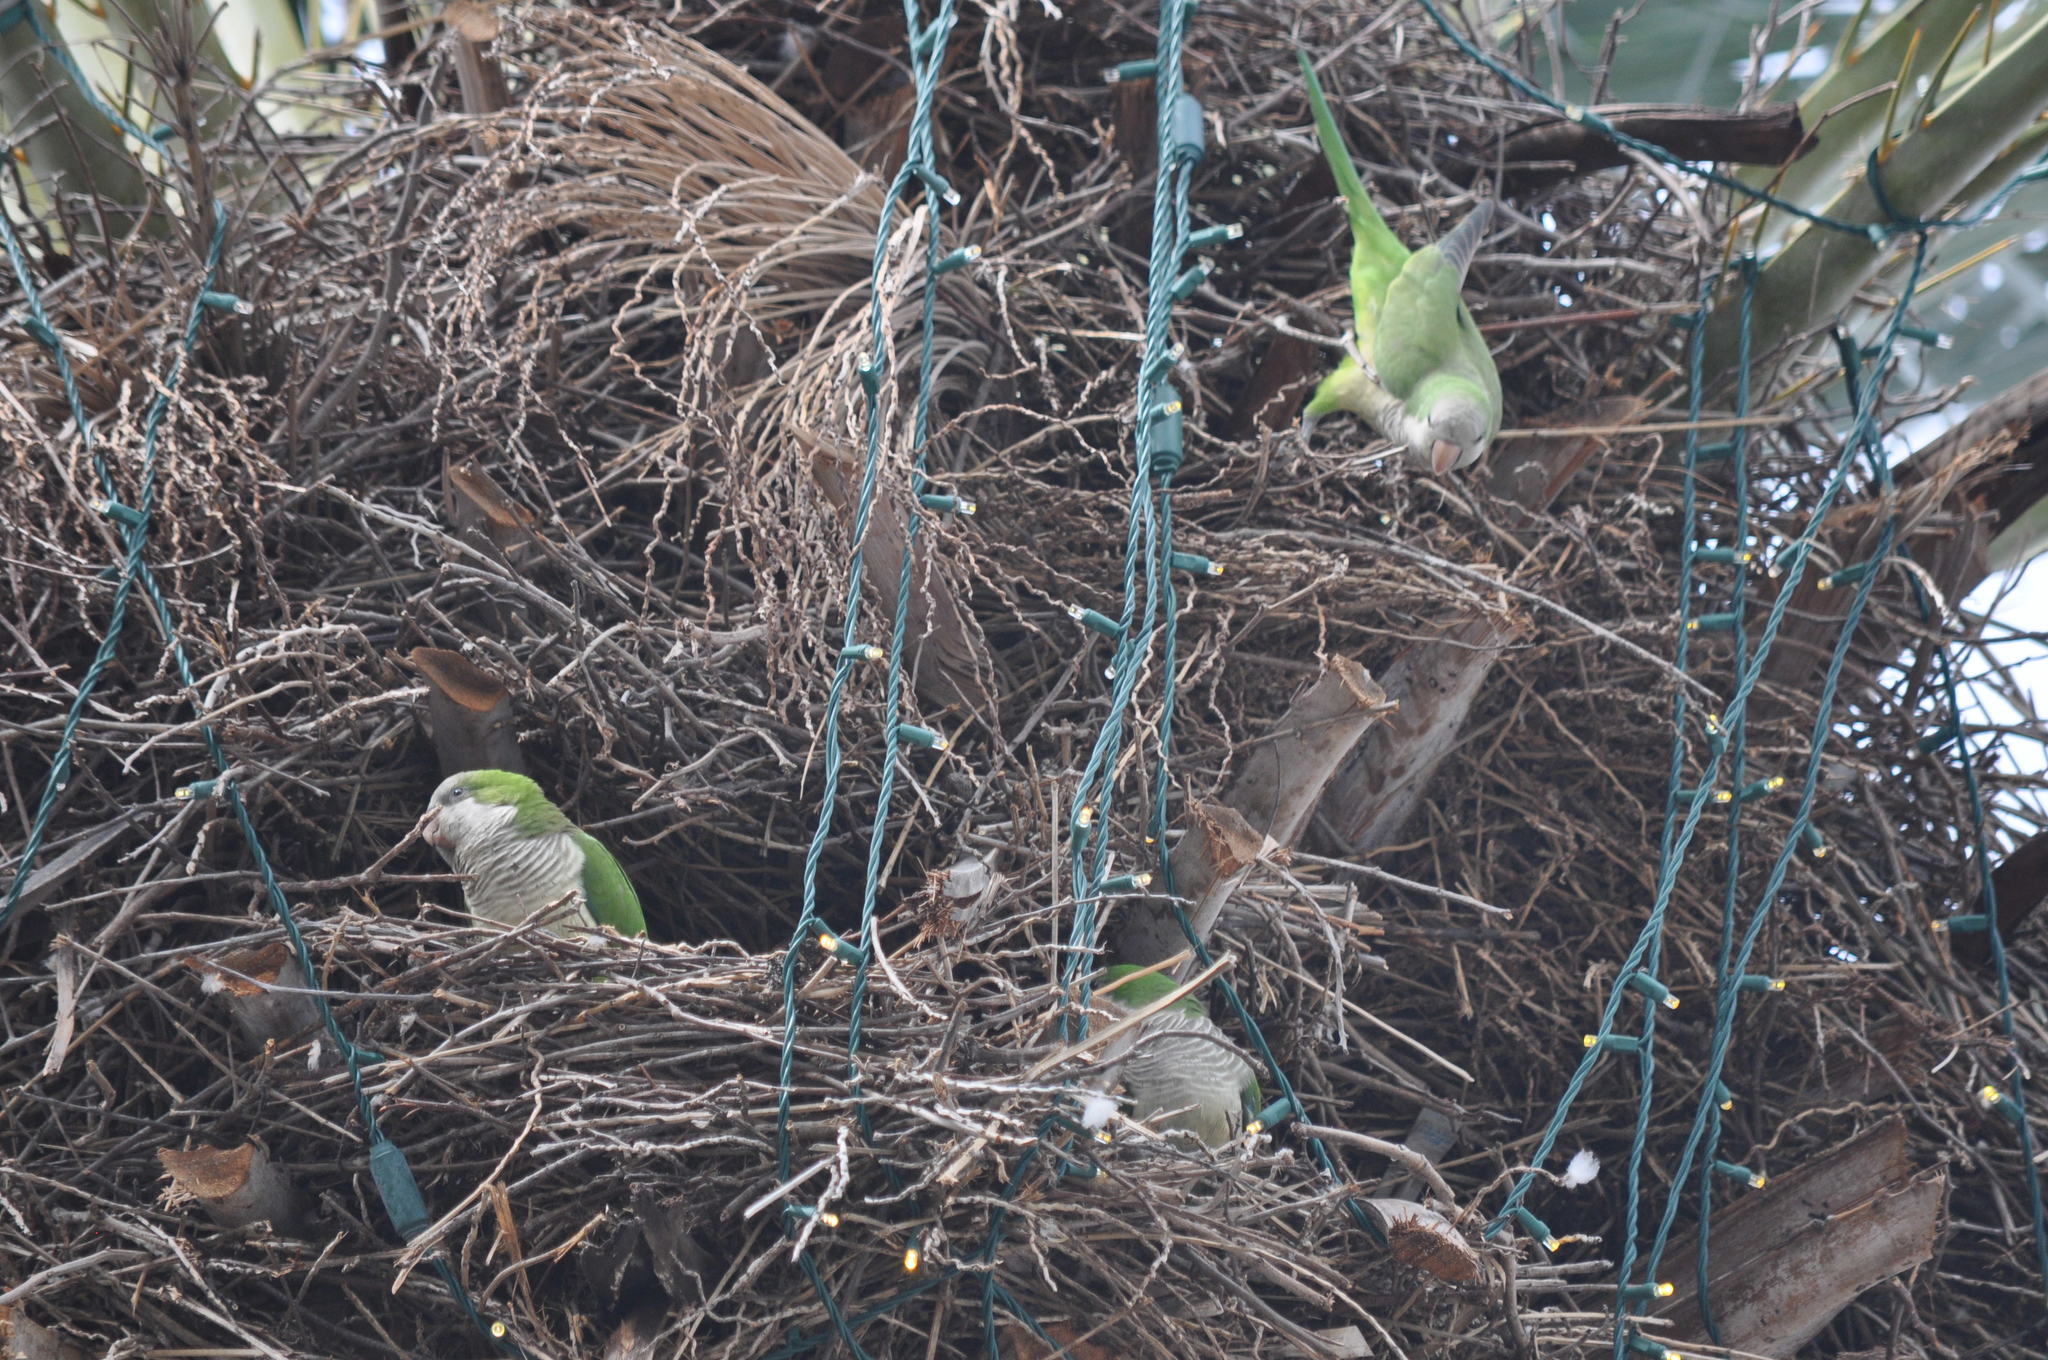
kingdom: Animalia
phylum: Chordata
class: Aves
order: Psittaciformes
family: Psittacidae
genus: Myiopsitta
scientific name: Myiopsitta monachus
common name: Monk parakeet
